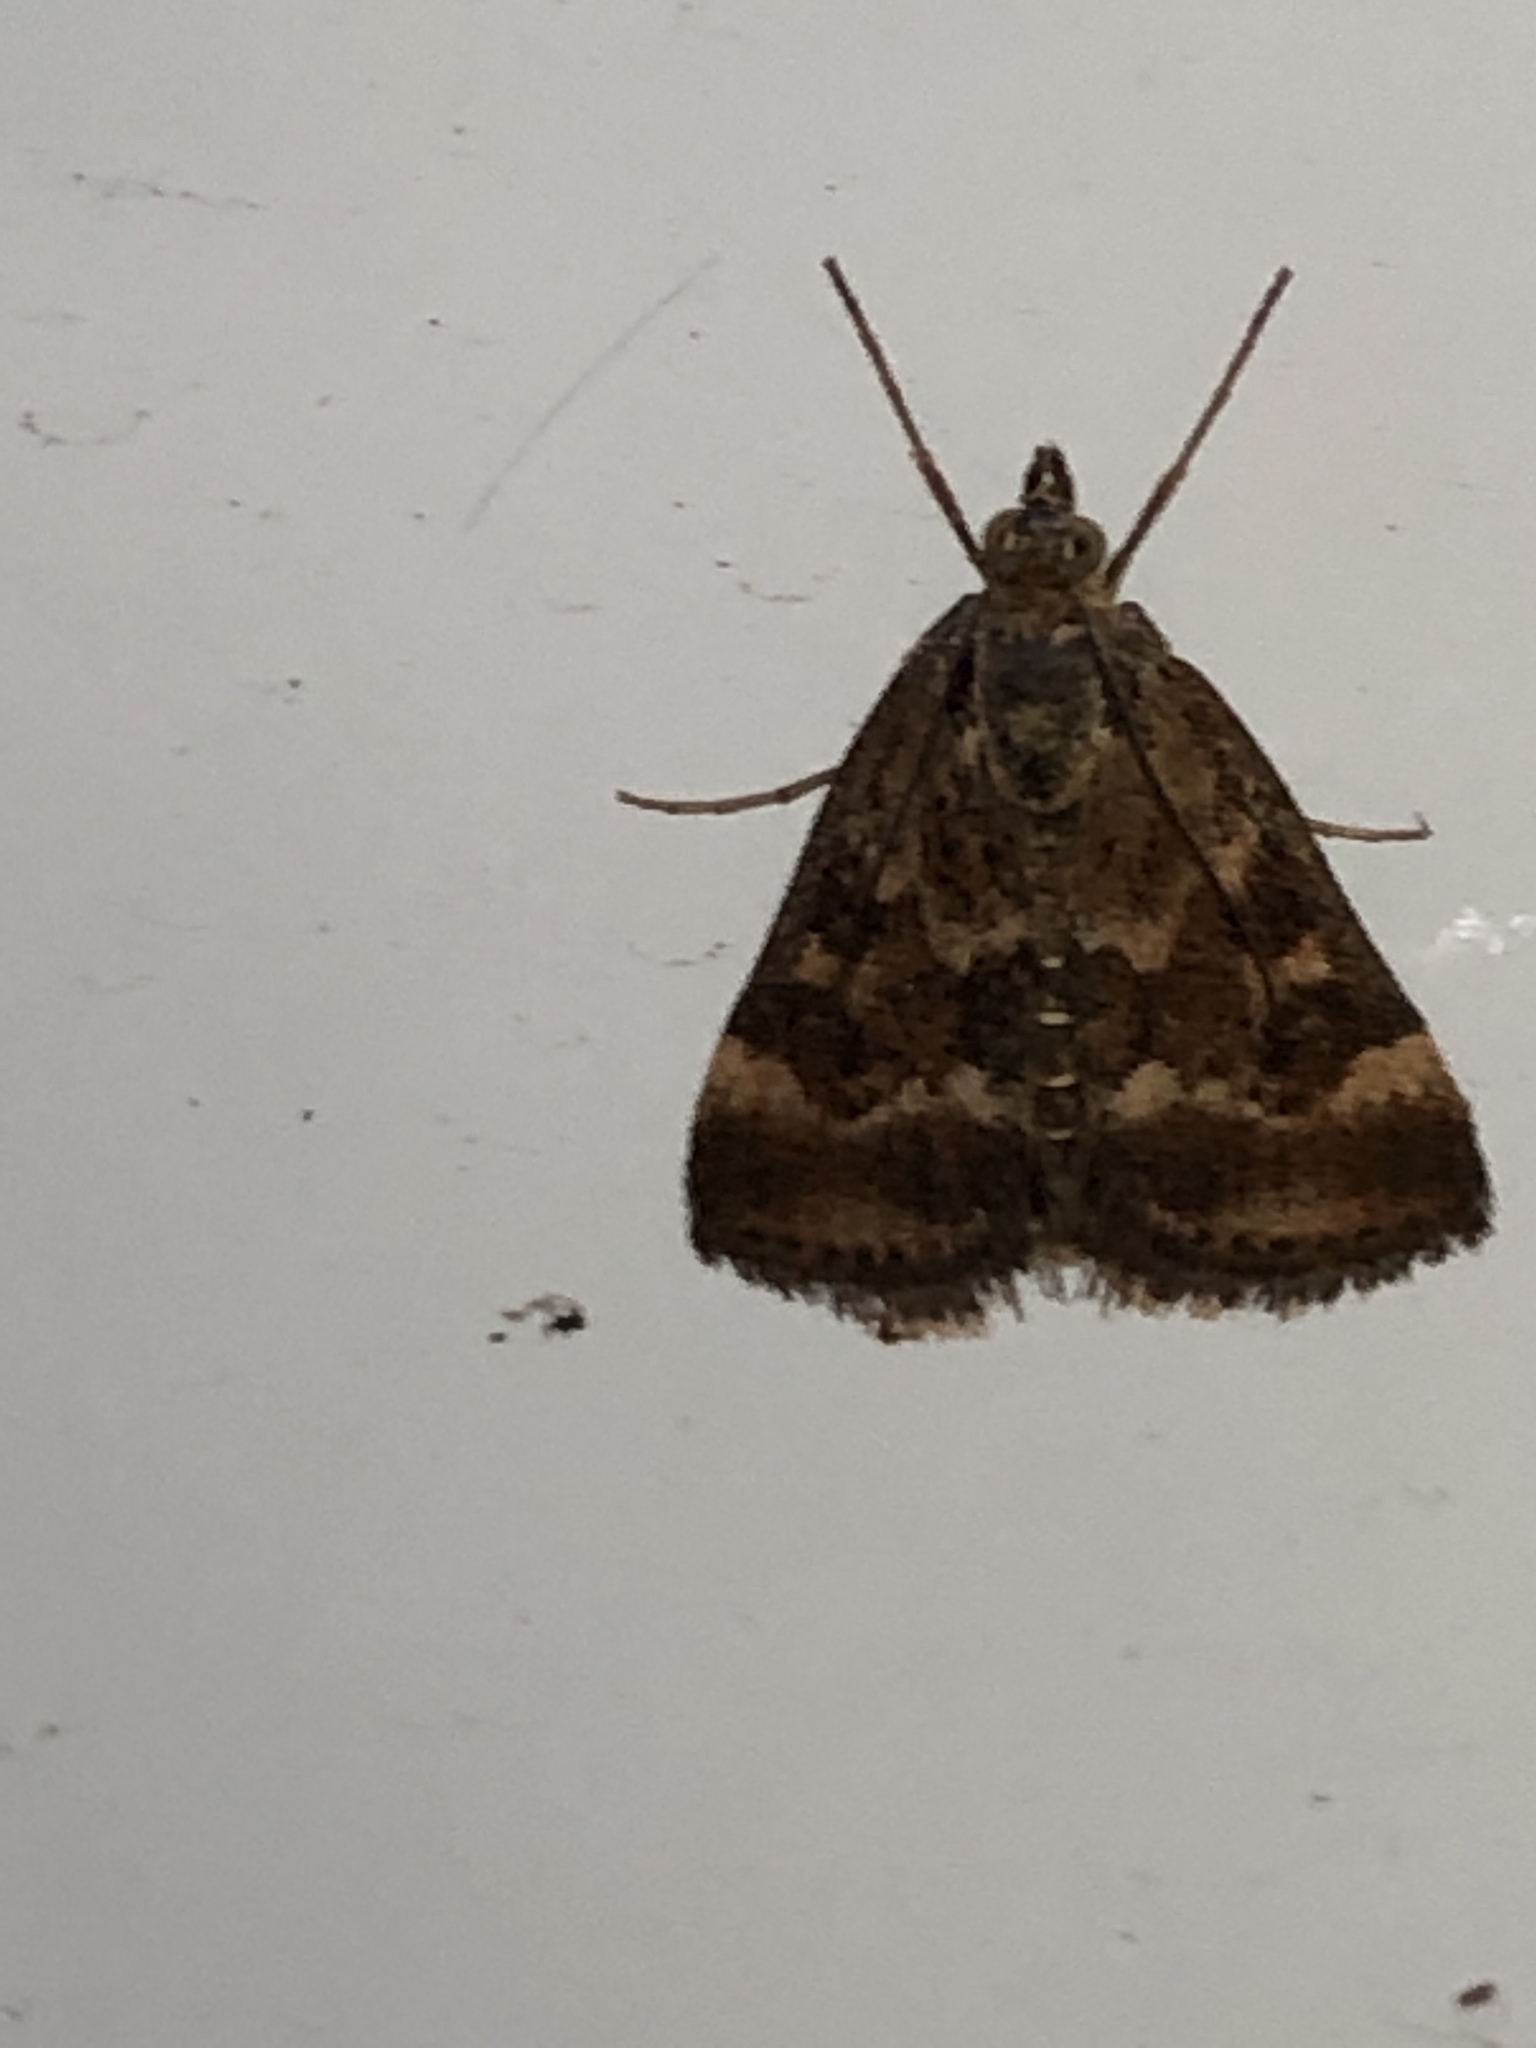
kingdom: Animalia
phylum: Arthropoda
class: Insecta
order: Lepidoptera
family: Crambidae
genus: Pyrausta
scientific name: Pyrausta despicata
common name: Straw-barred pearl
